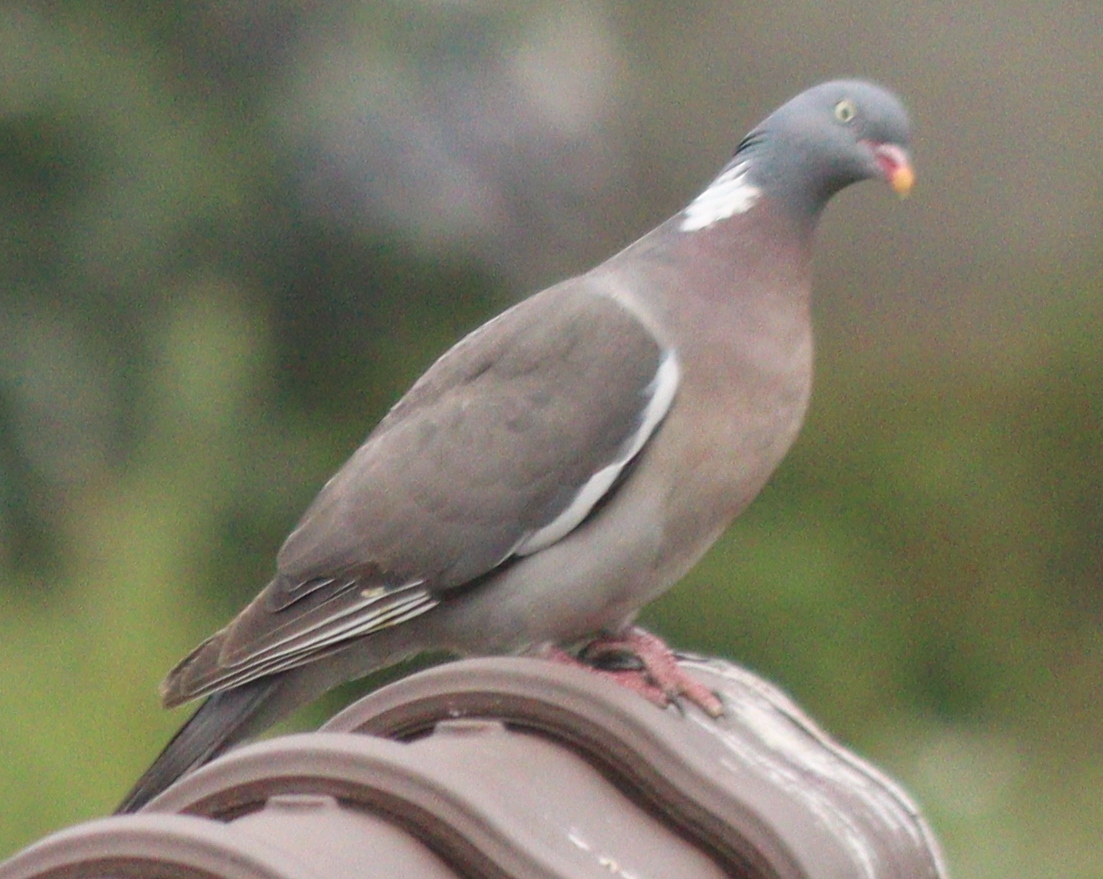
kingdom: Animalia
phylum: Chordata
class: Aves
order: Columbiformes
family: Columbidae
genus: Columba
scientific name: Columba palumbus
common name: Common wood pigeon
